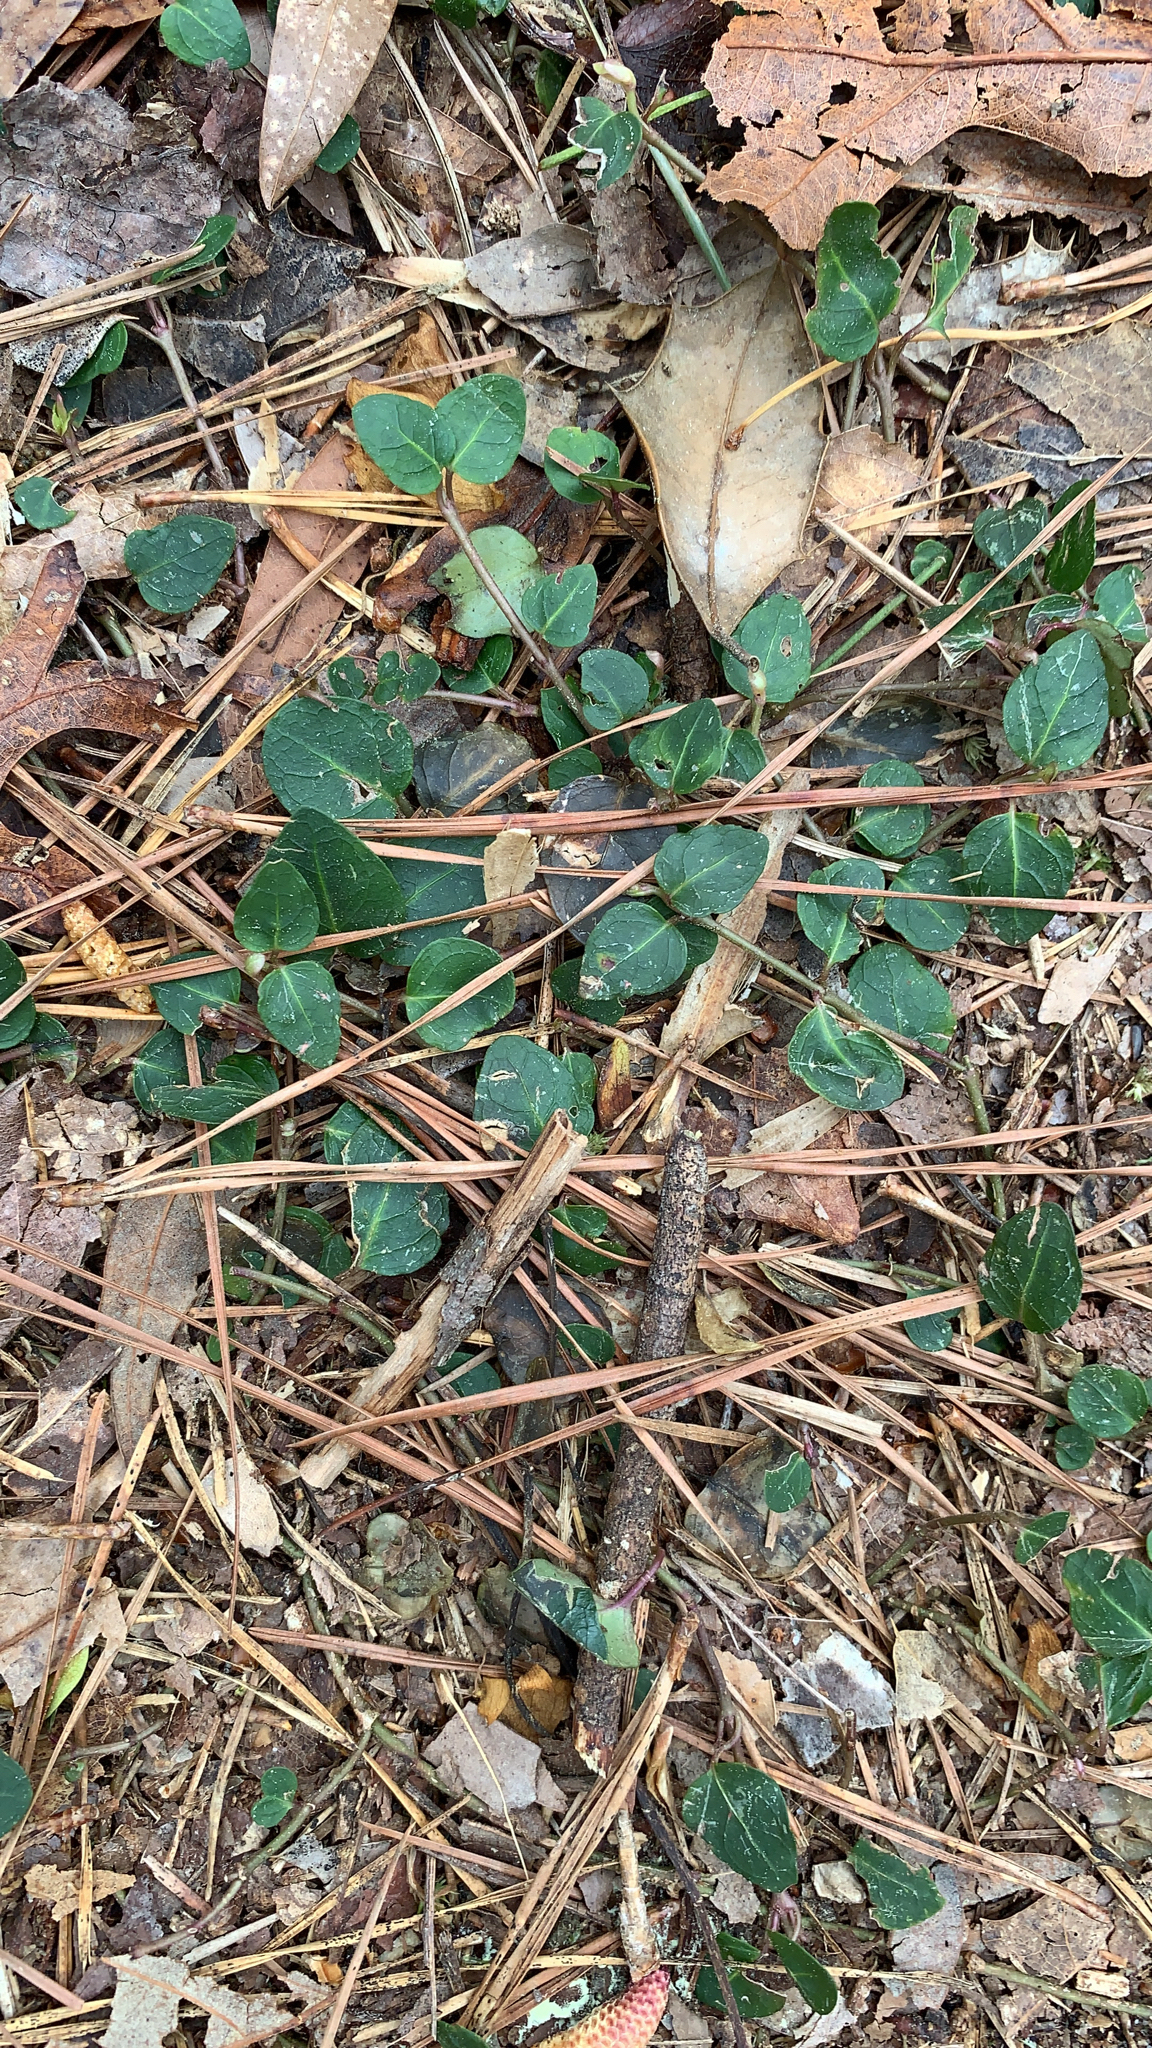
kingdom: Plantae
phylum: Tracheophyta
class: Magnoliopsida
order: Gentianales
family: Rubiaceae
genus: Mitchella
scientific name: Mitchella repens
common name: Partridge-berry
